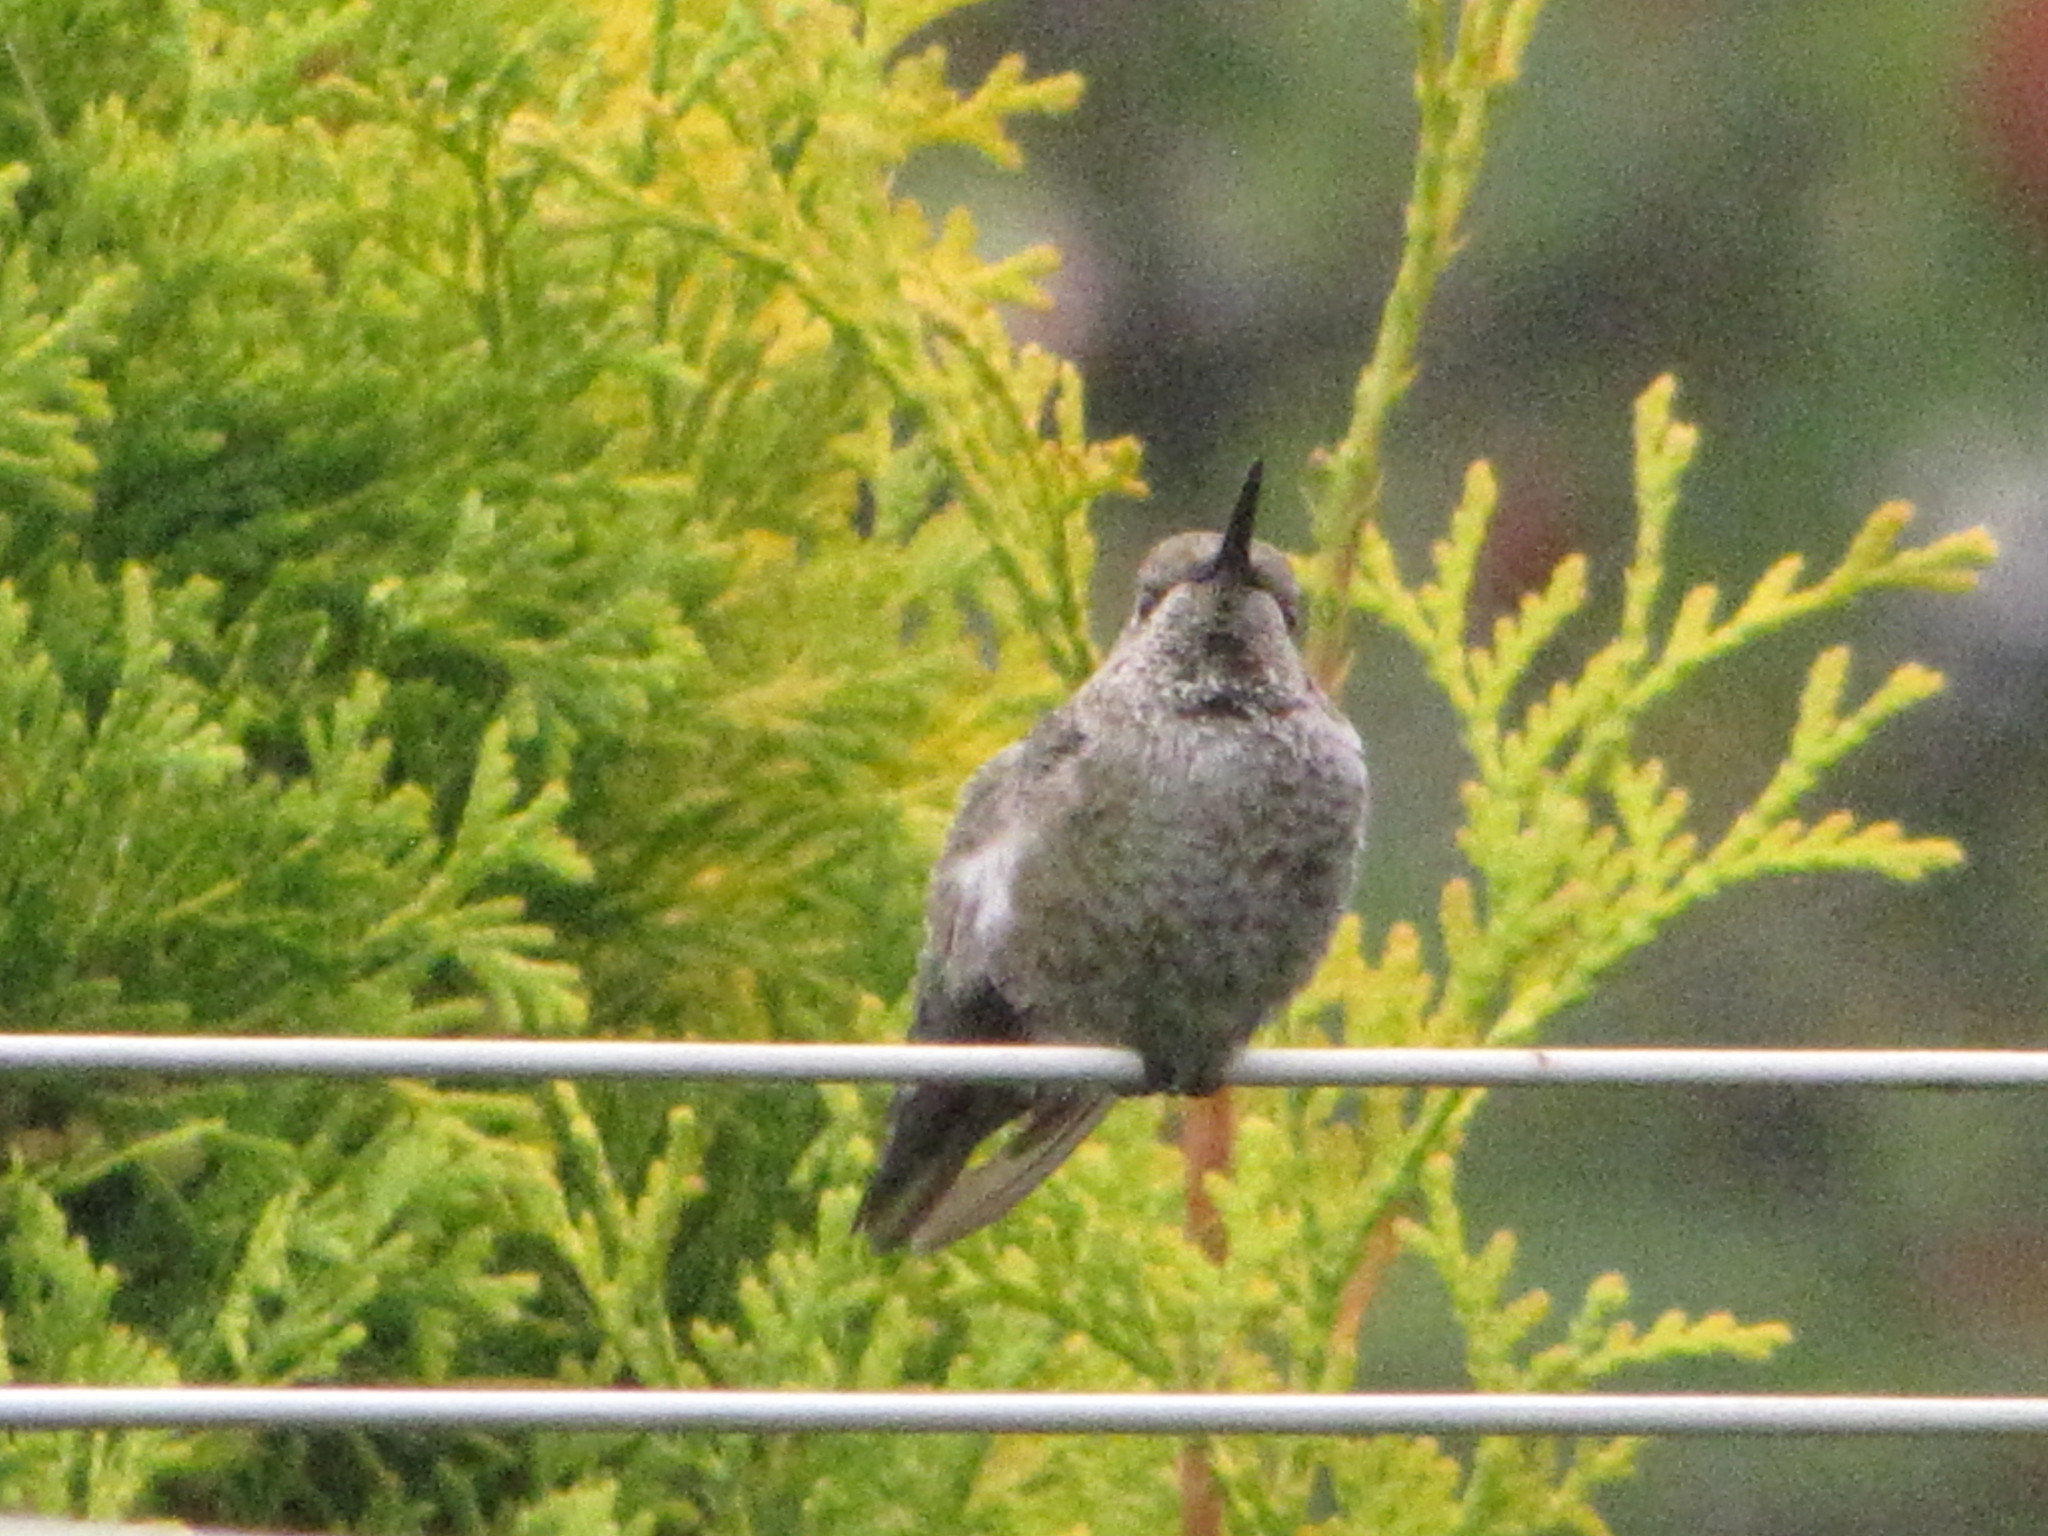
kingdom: Animalia
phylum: Chordata
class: Aves
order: Apodiformes
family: Trochilidae
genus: Calypte
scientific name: Calypte anna
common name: Anna's hummingbird
